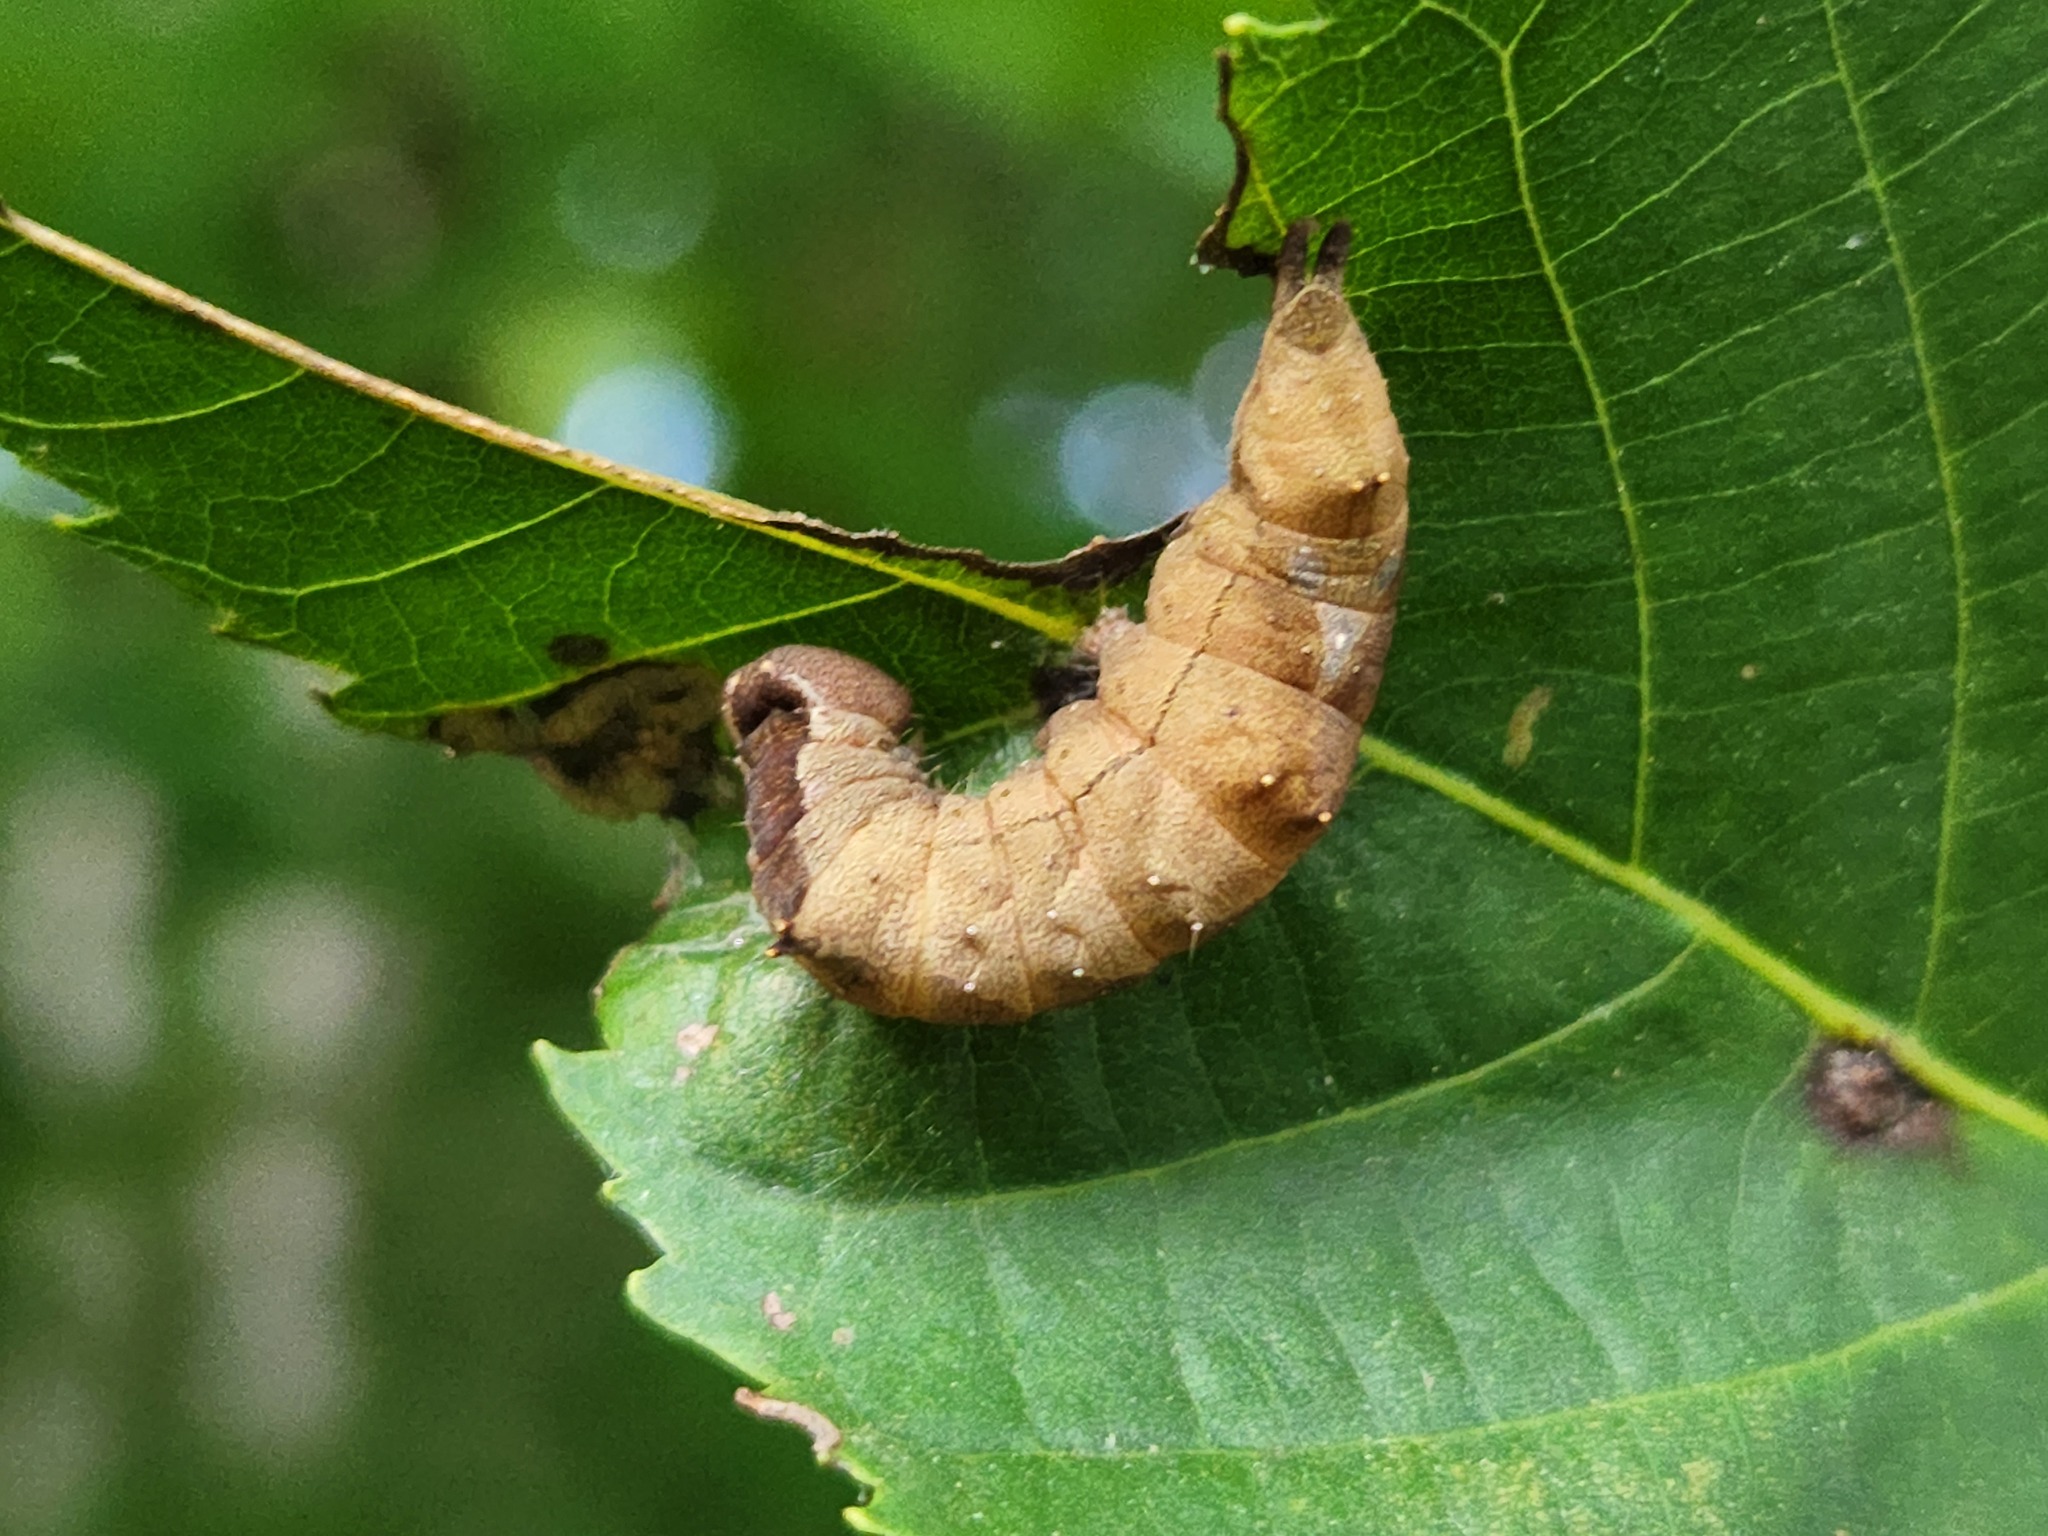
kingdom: Animalia
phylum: Arthropoda
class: Insecta
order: Lepidoptera
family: Notodontidae
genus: Schizura
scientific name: Schizura
